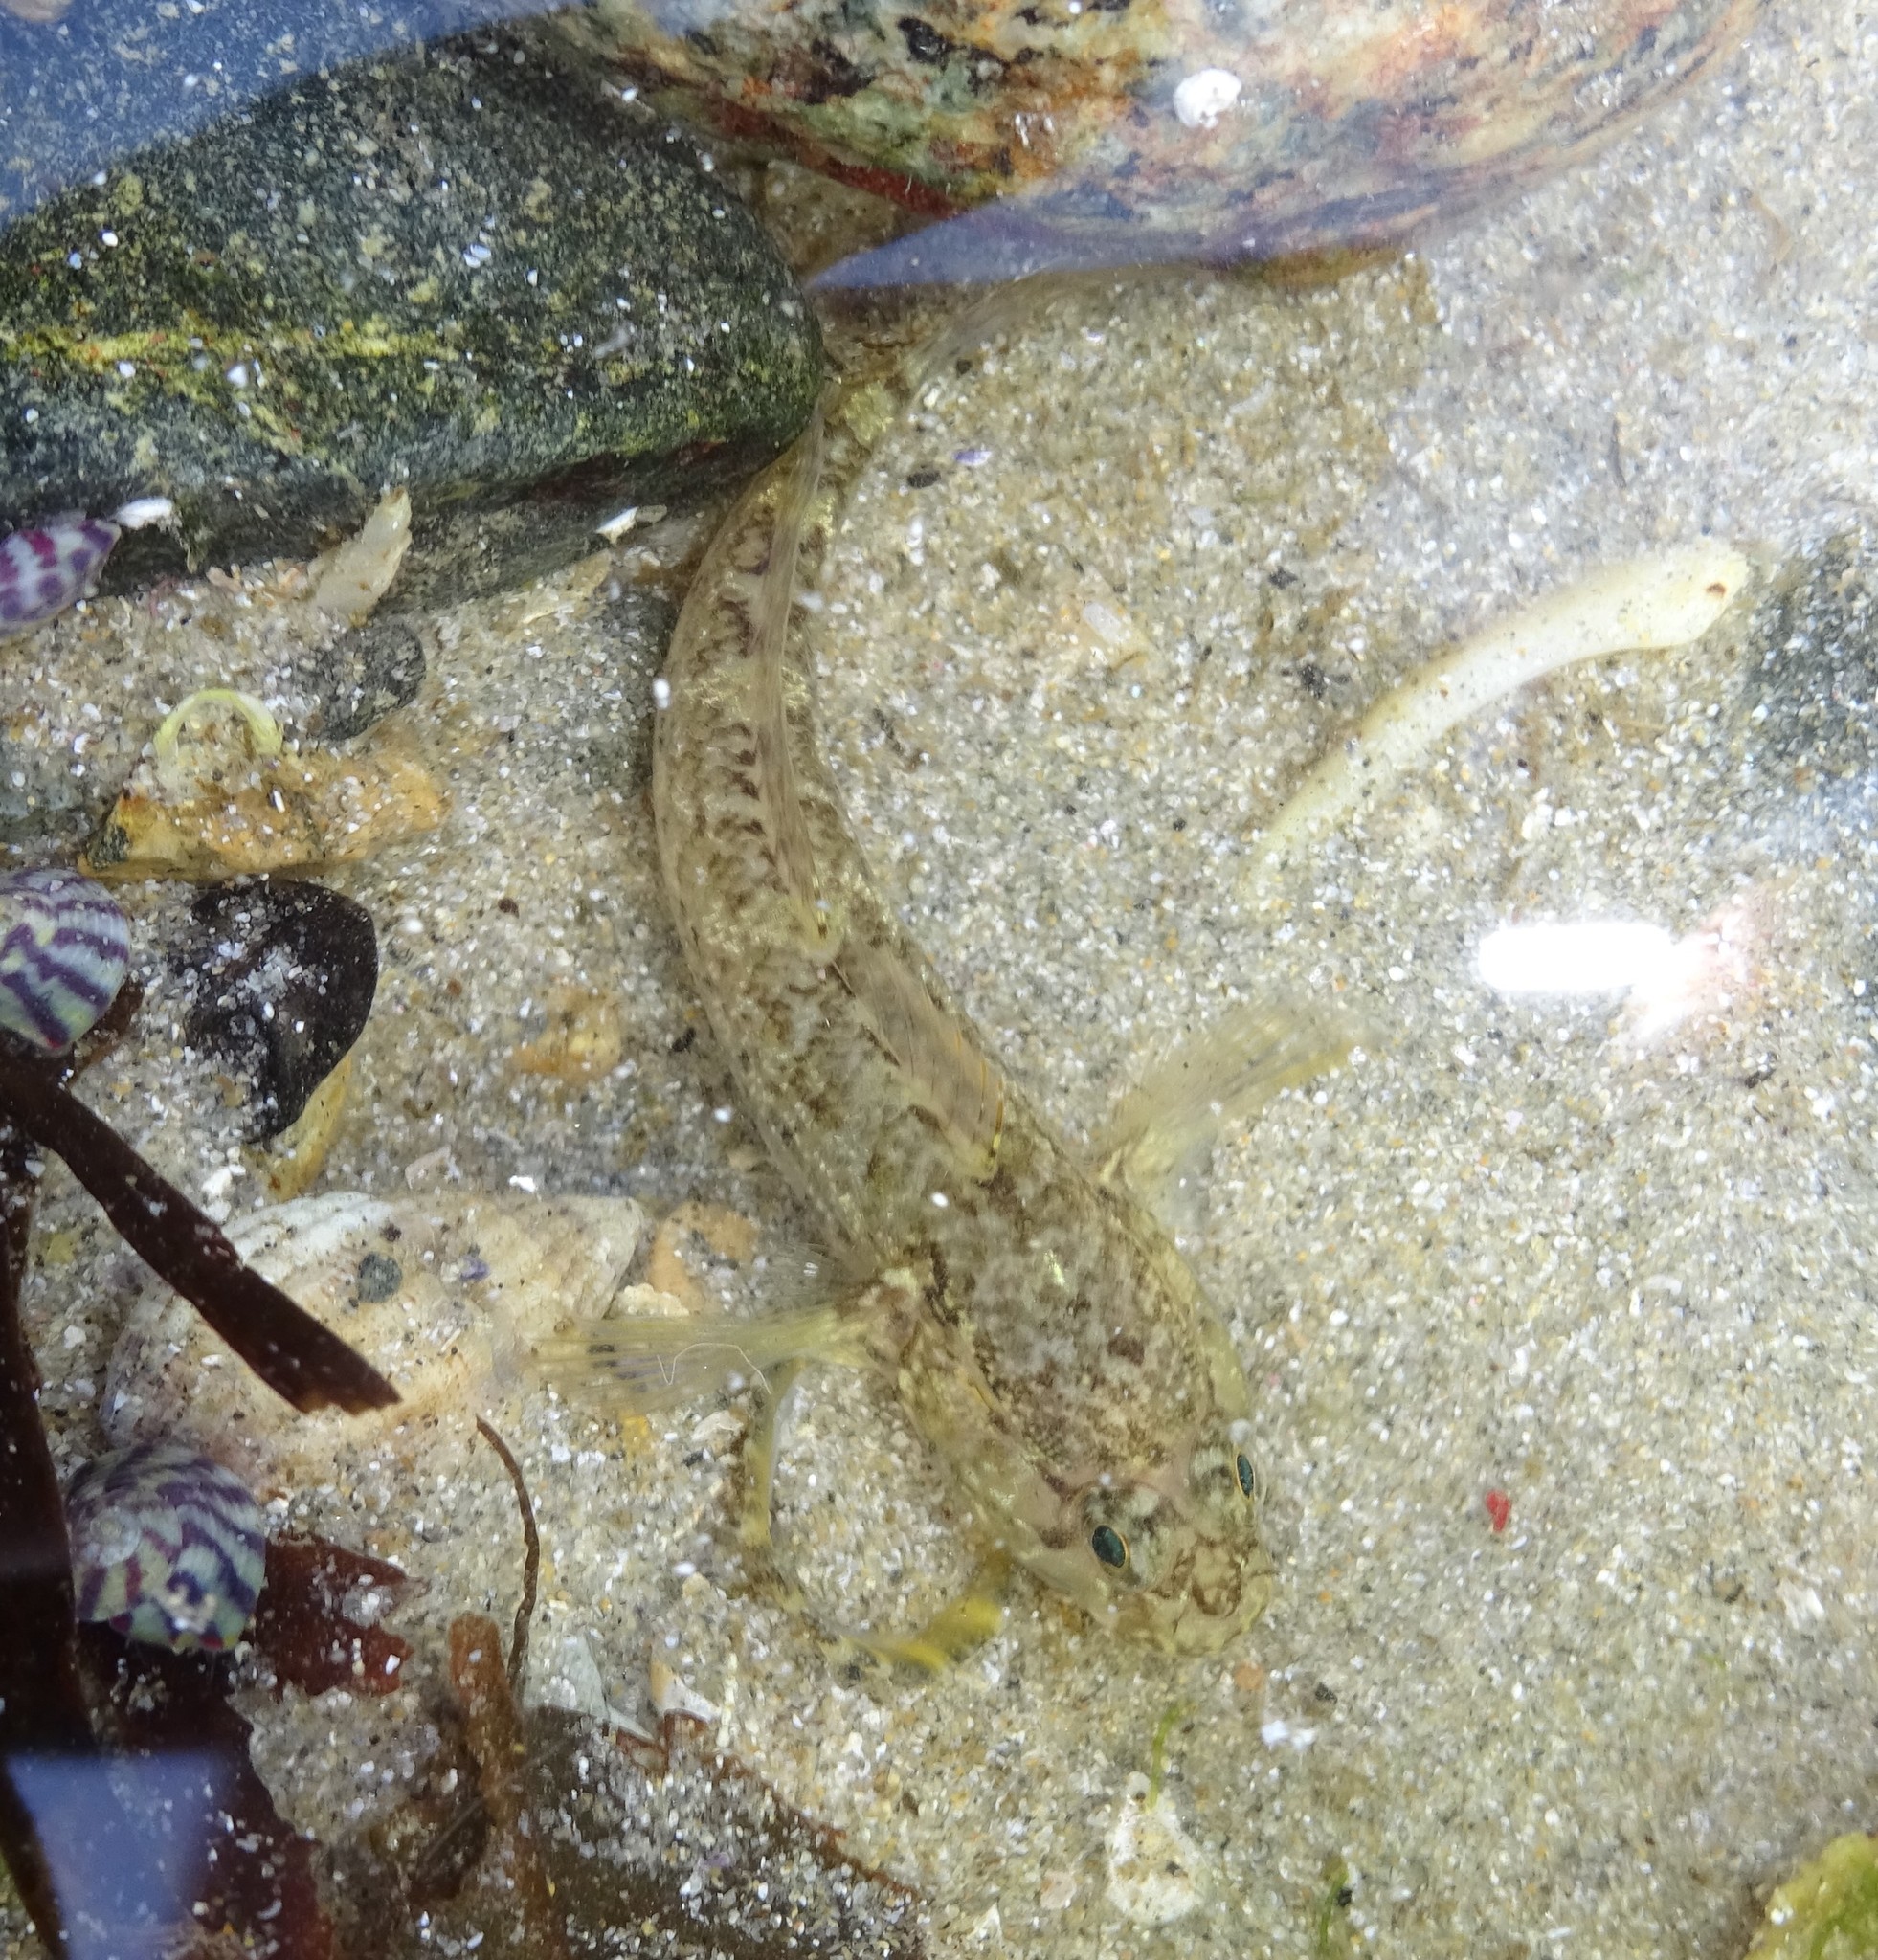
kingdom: Animalia
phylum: Chordata
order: Perciformes
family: Gobiidae
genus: Gobius
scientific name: Gobius paganellus
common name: Rock goby
